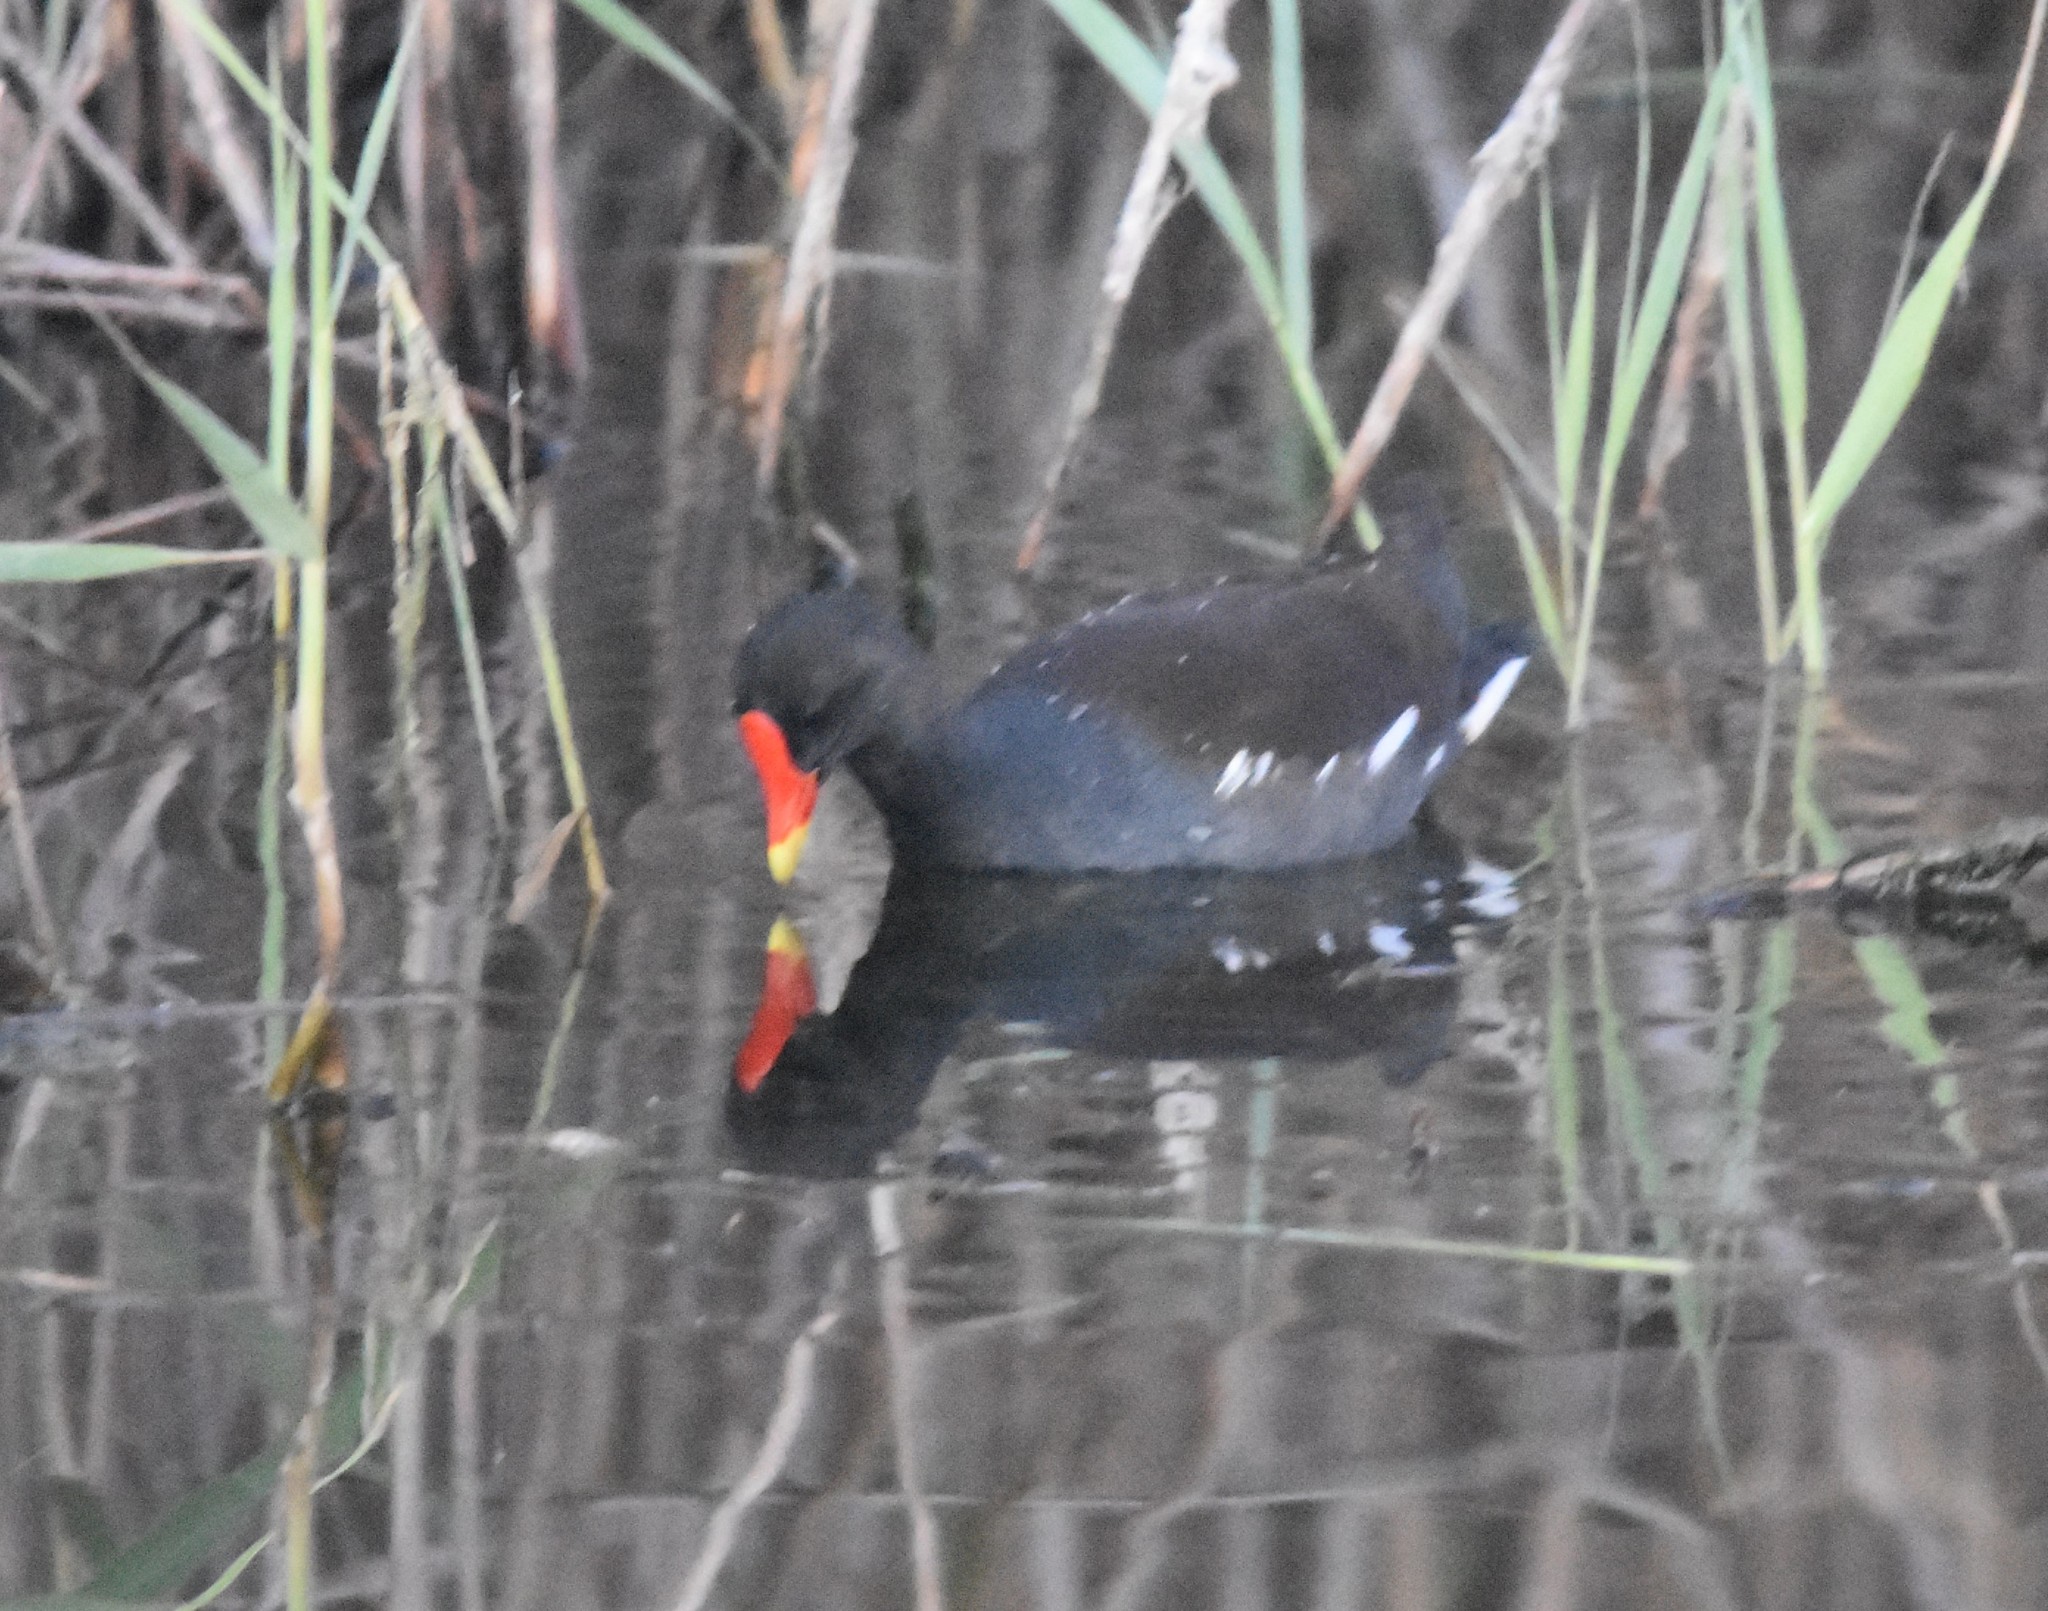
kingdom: Animalia
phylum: Chordata
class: Aves
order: Gruiformes
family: Rallidae
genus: Gallinula
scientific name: Gallinula chloropus
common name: Common moorhen
